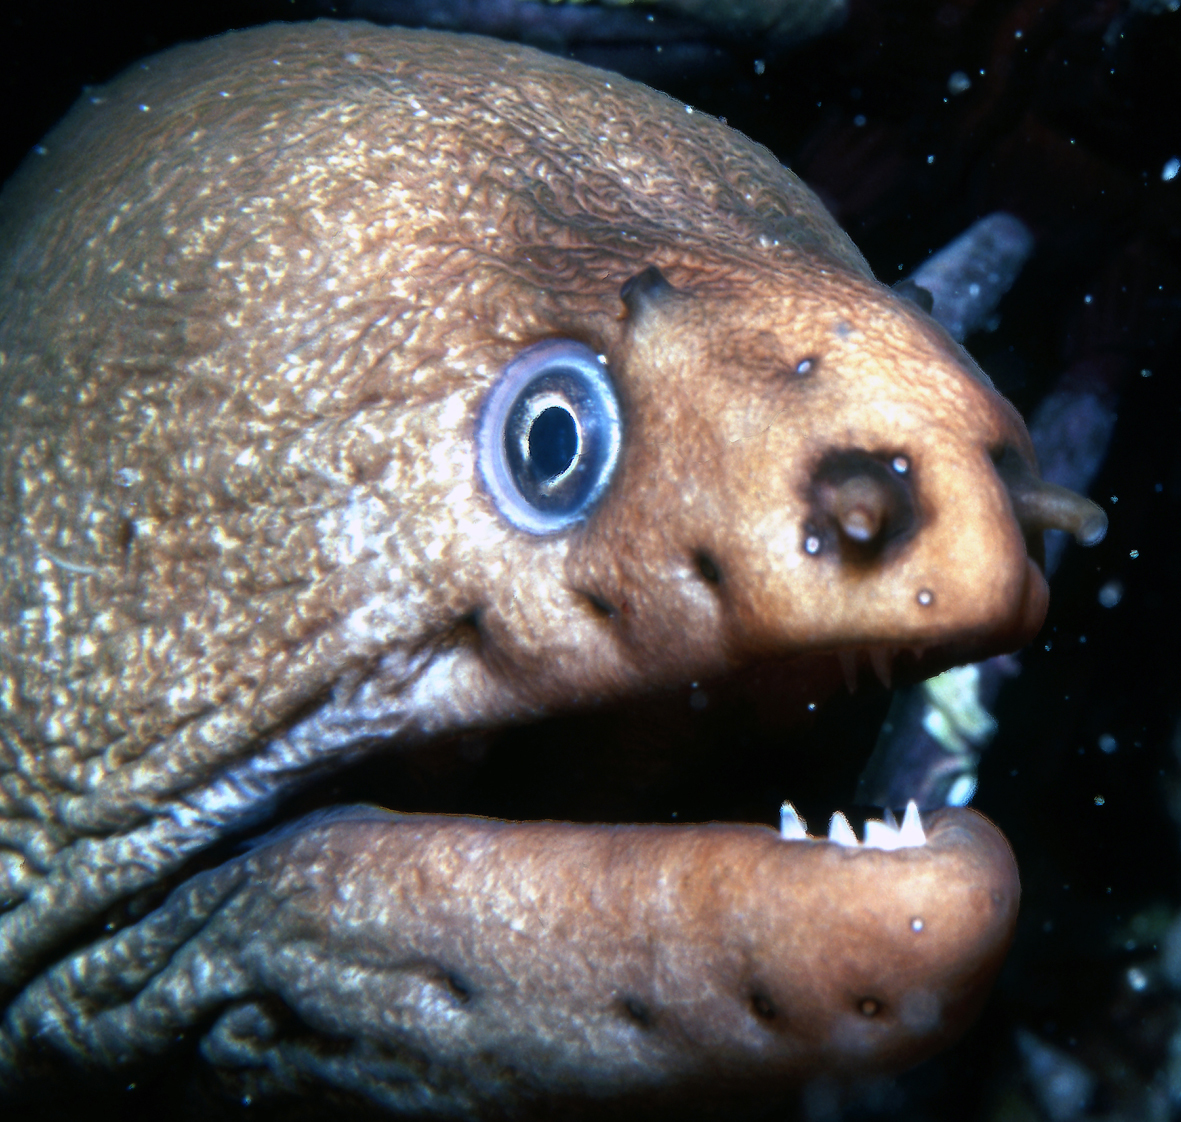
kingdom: Animalia
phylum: Chordata
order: Anguilliformes
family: Muraenidae
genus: Gymnothorax
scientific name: Gymnothorax prasinus
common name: Yellow moray
